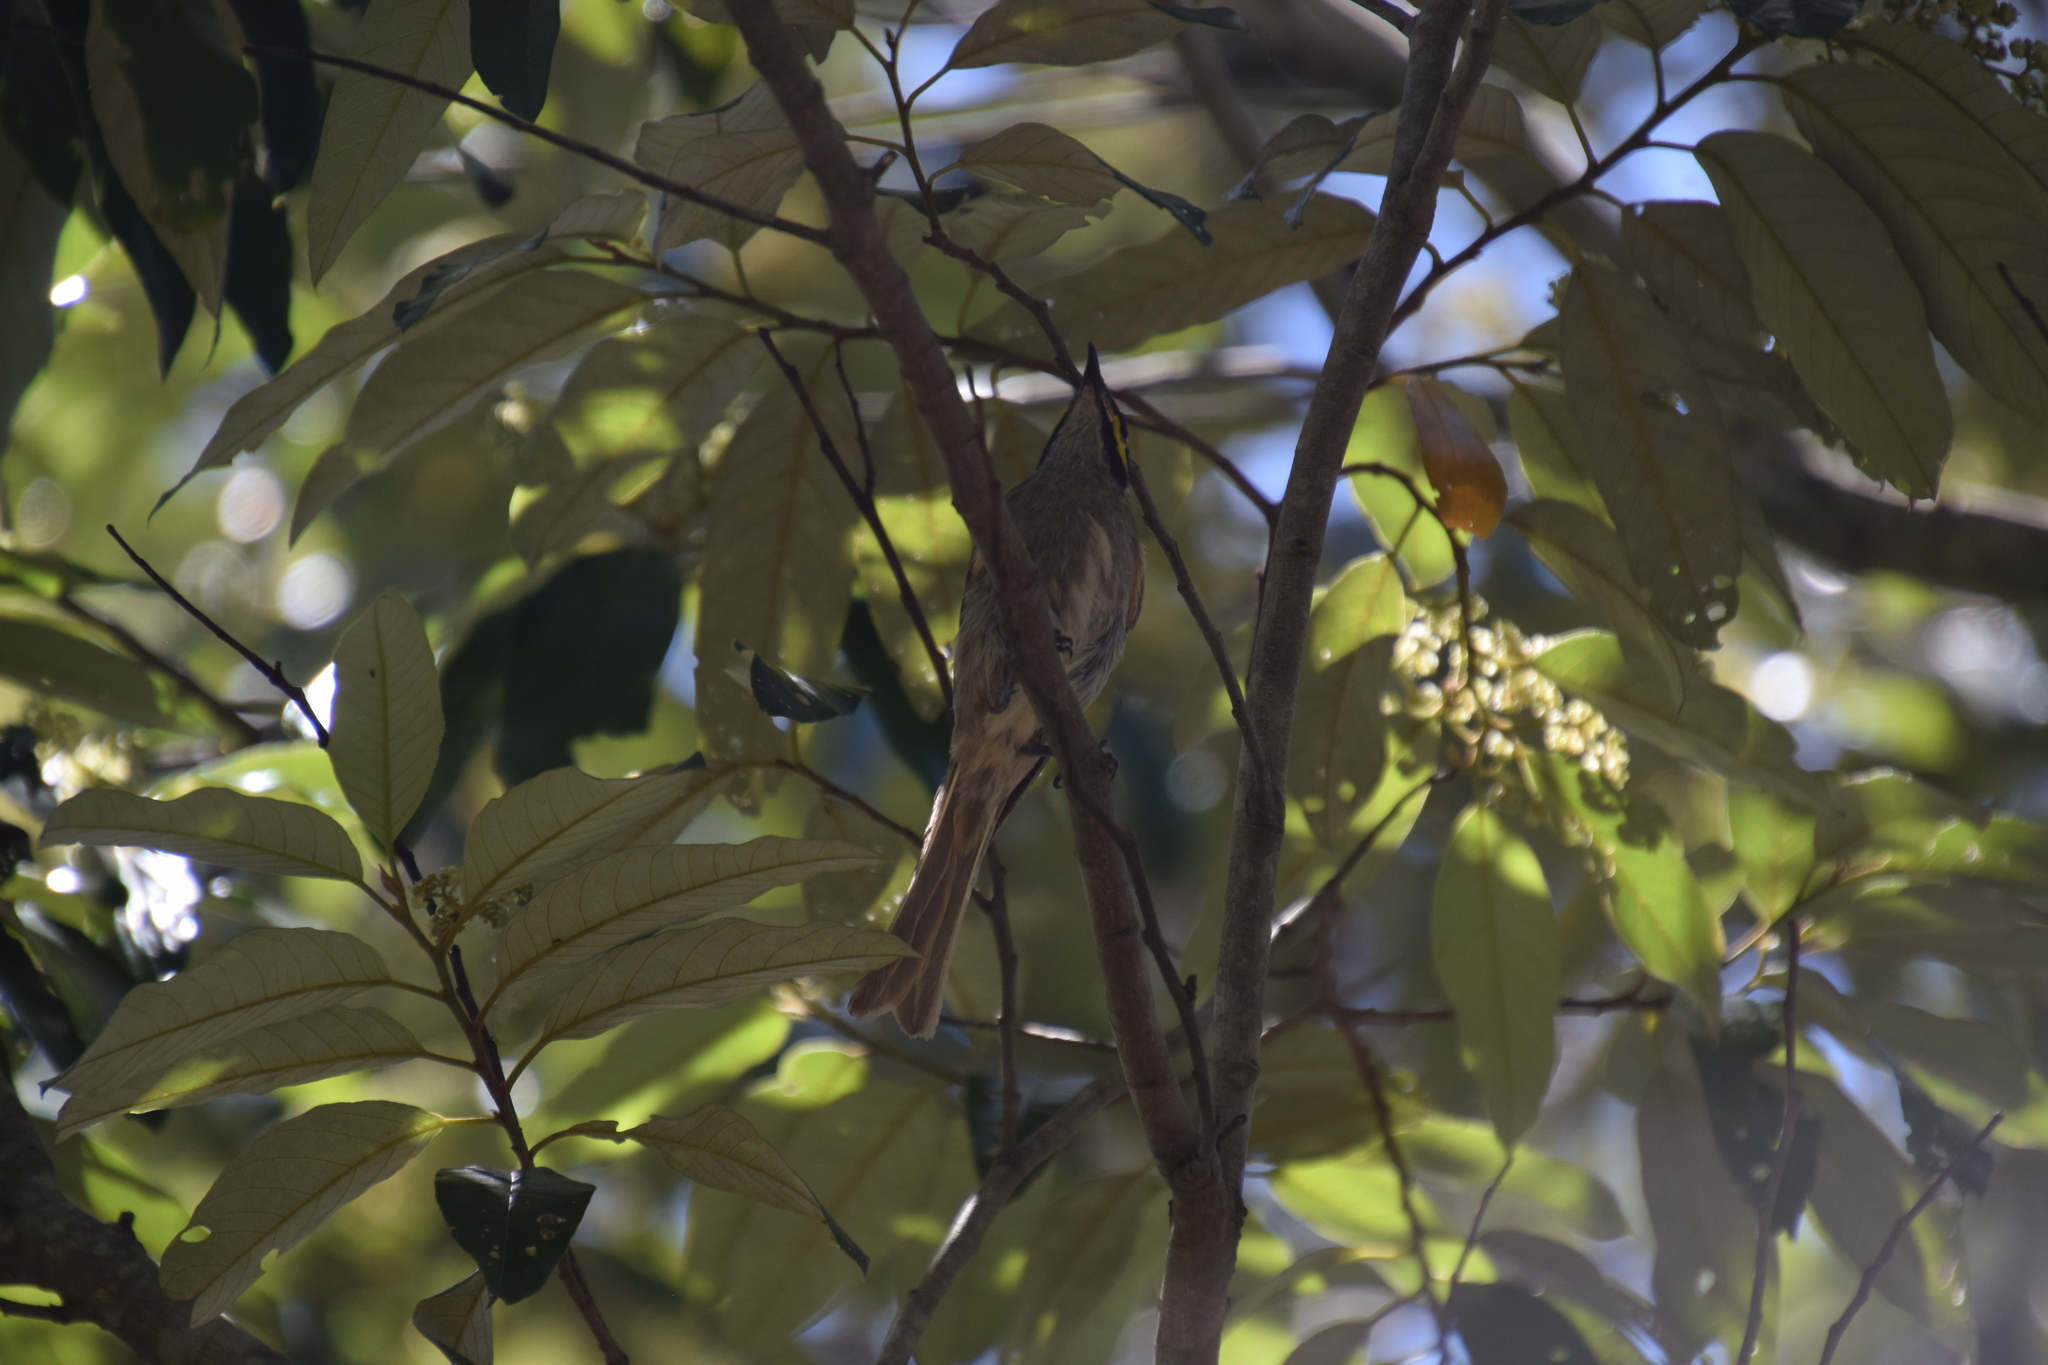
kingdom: Animalia
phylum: Chordata
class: Aves
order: Passeriformes
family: Meliphagidae
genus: Caligavis
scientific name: Caligavis chrysops
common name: Yellow-faced honeyeater
